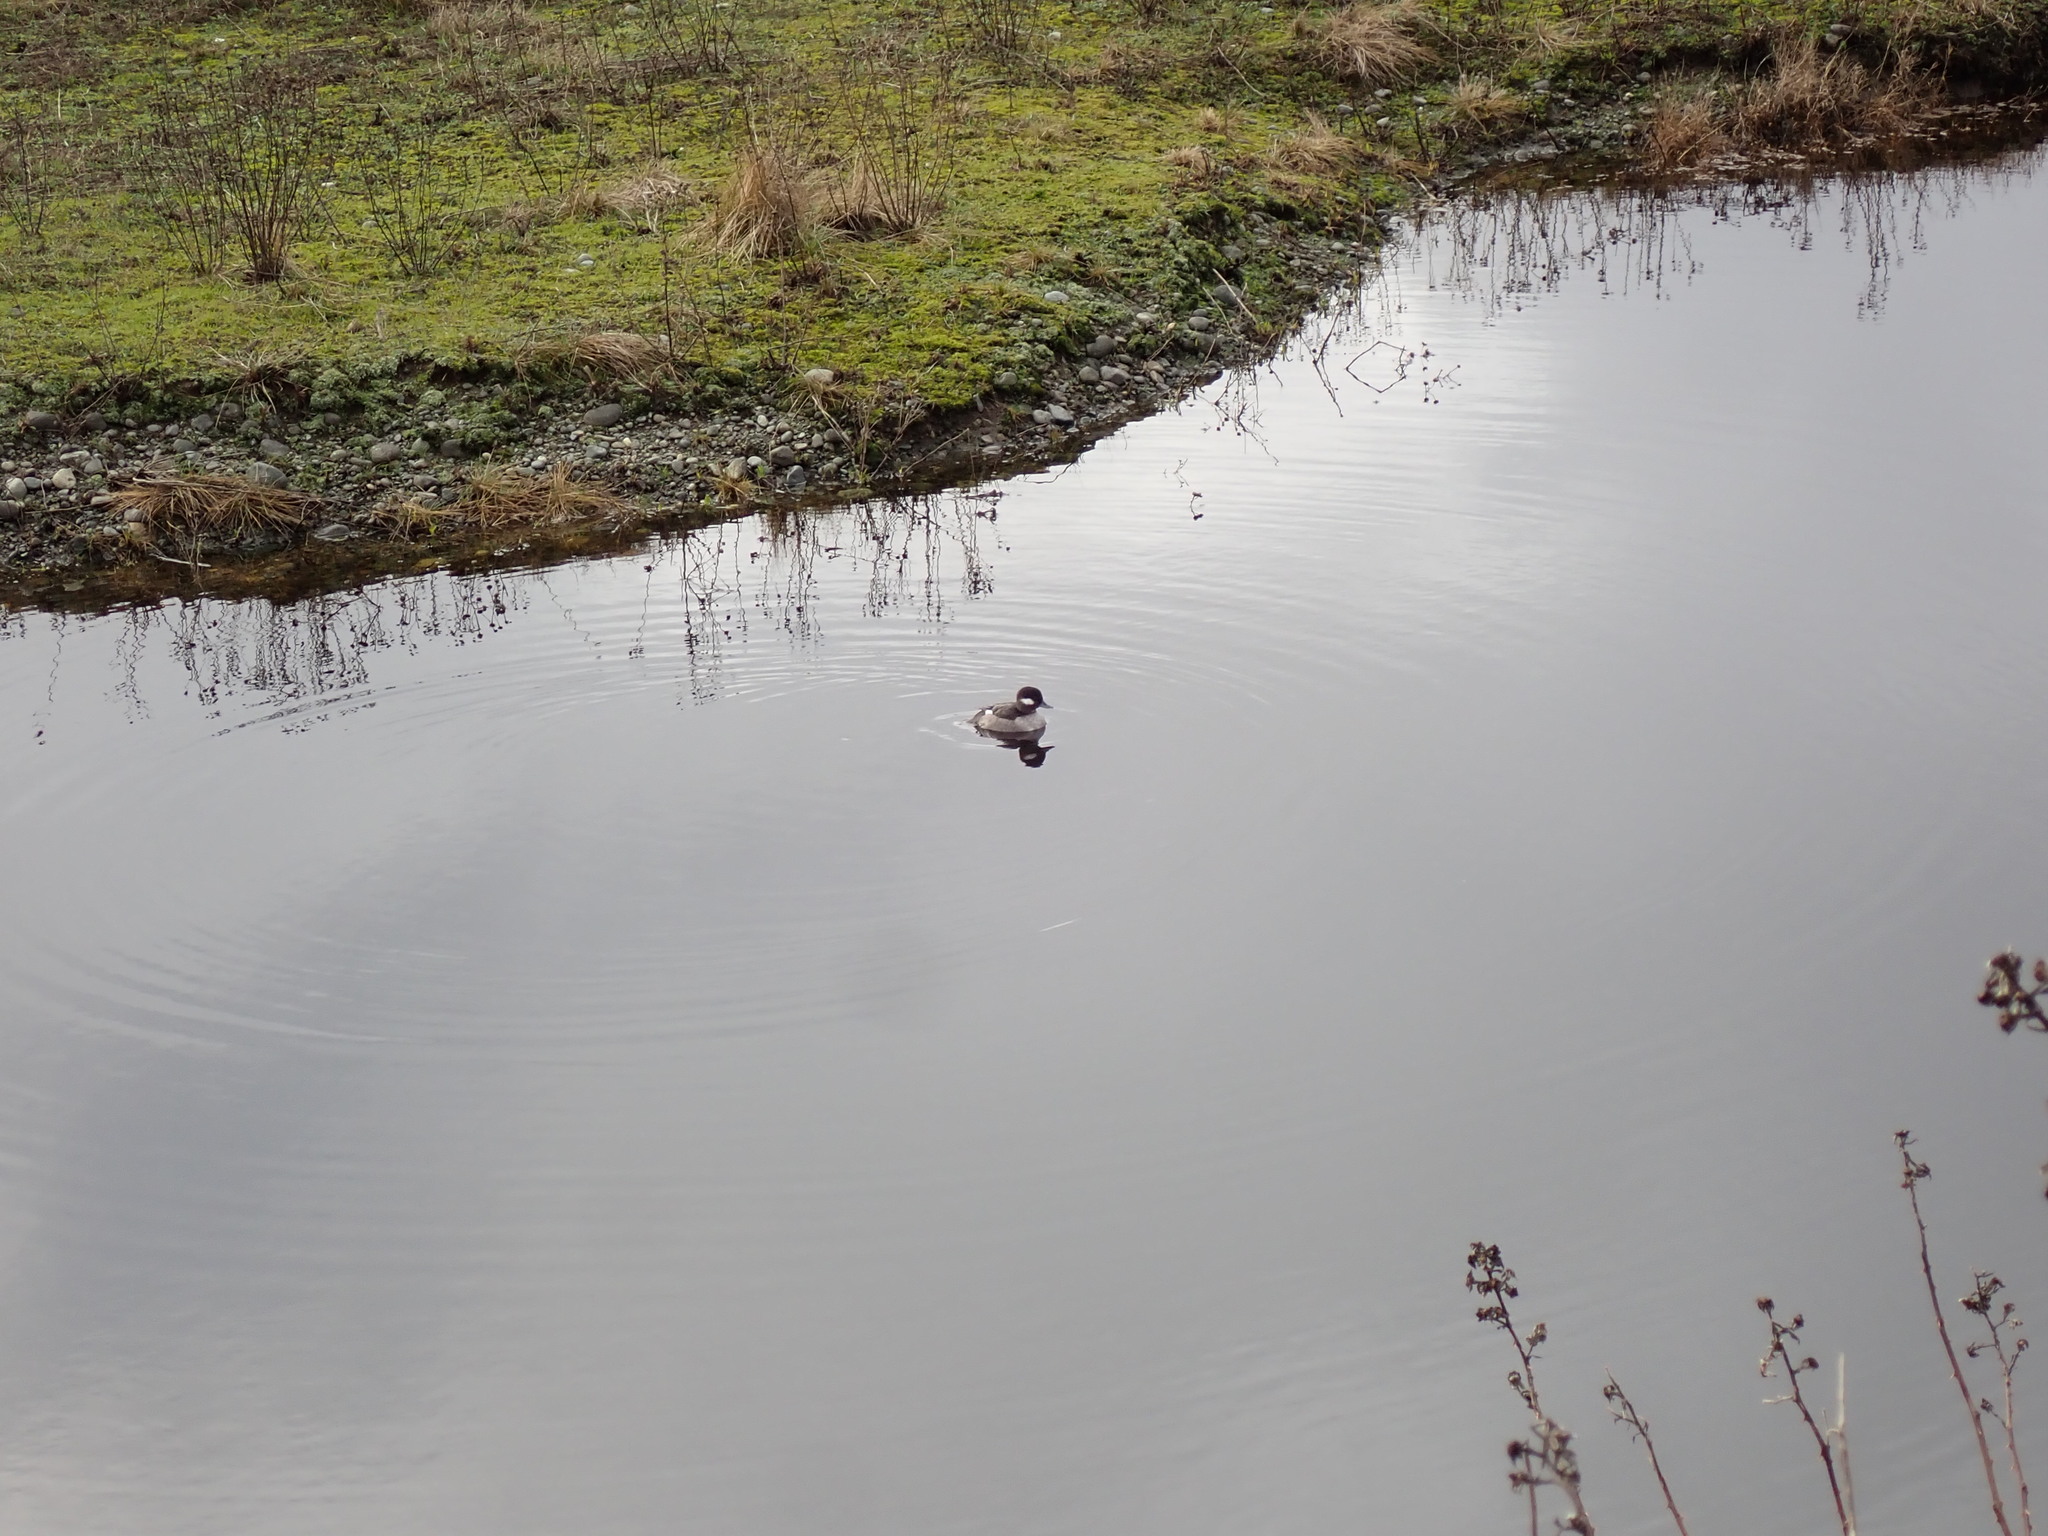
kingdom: Animalia
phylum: Chordata
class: Aves
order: Anseriformes
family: Anatidae
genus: Bucephala
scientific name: Bucephala albeola
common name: Bufflehead
